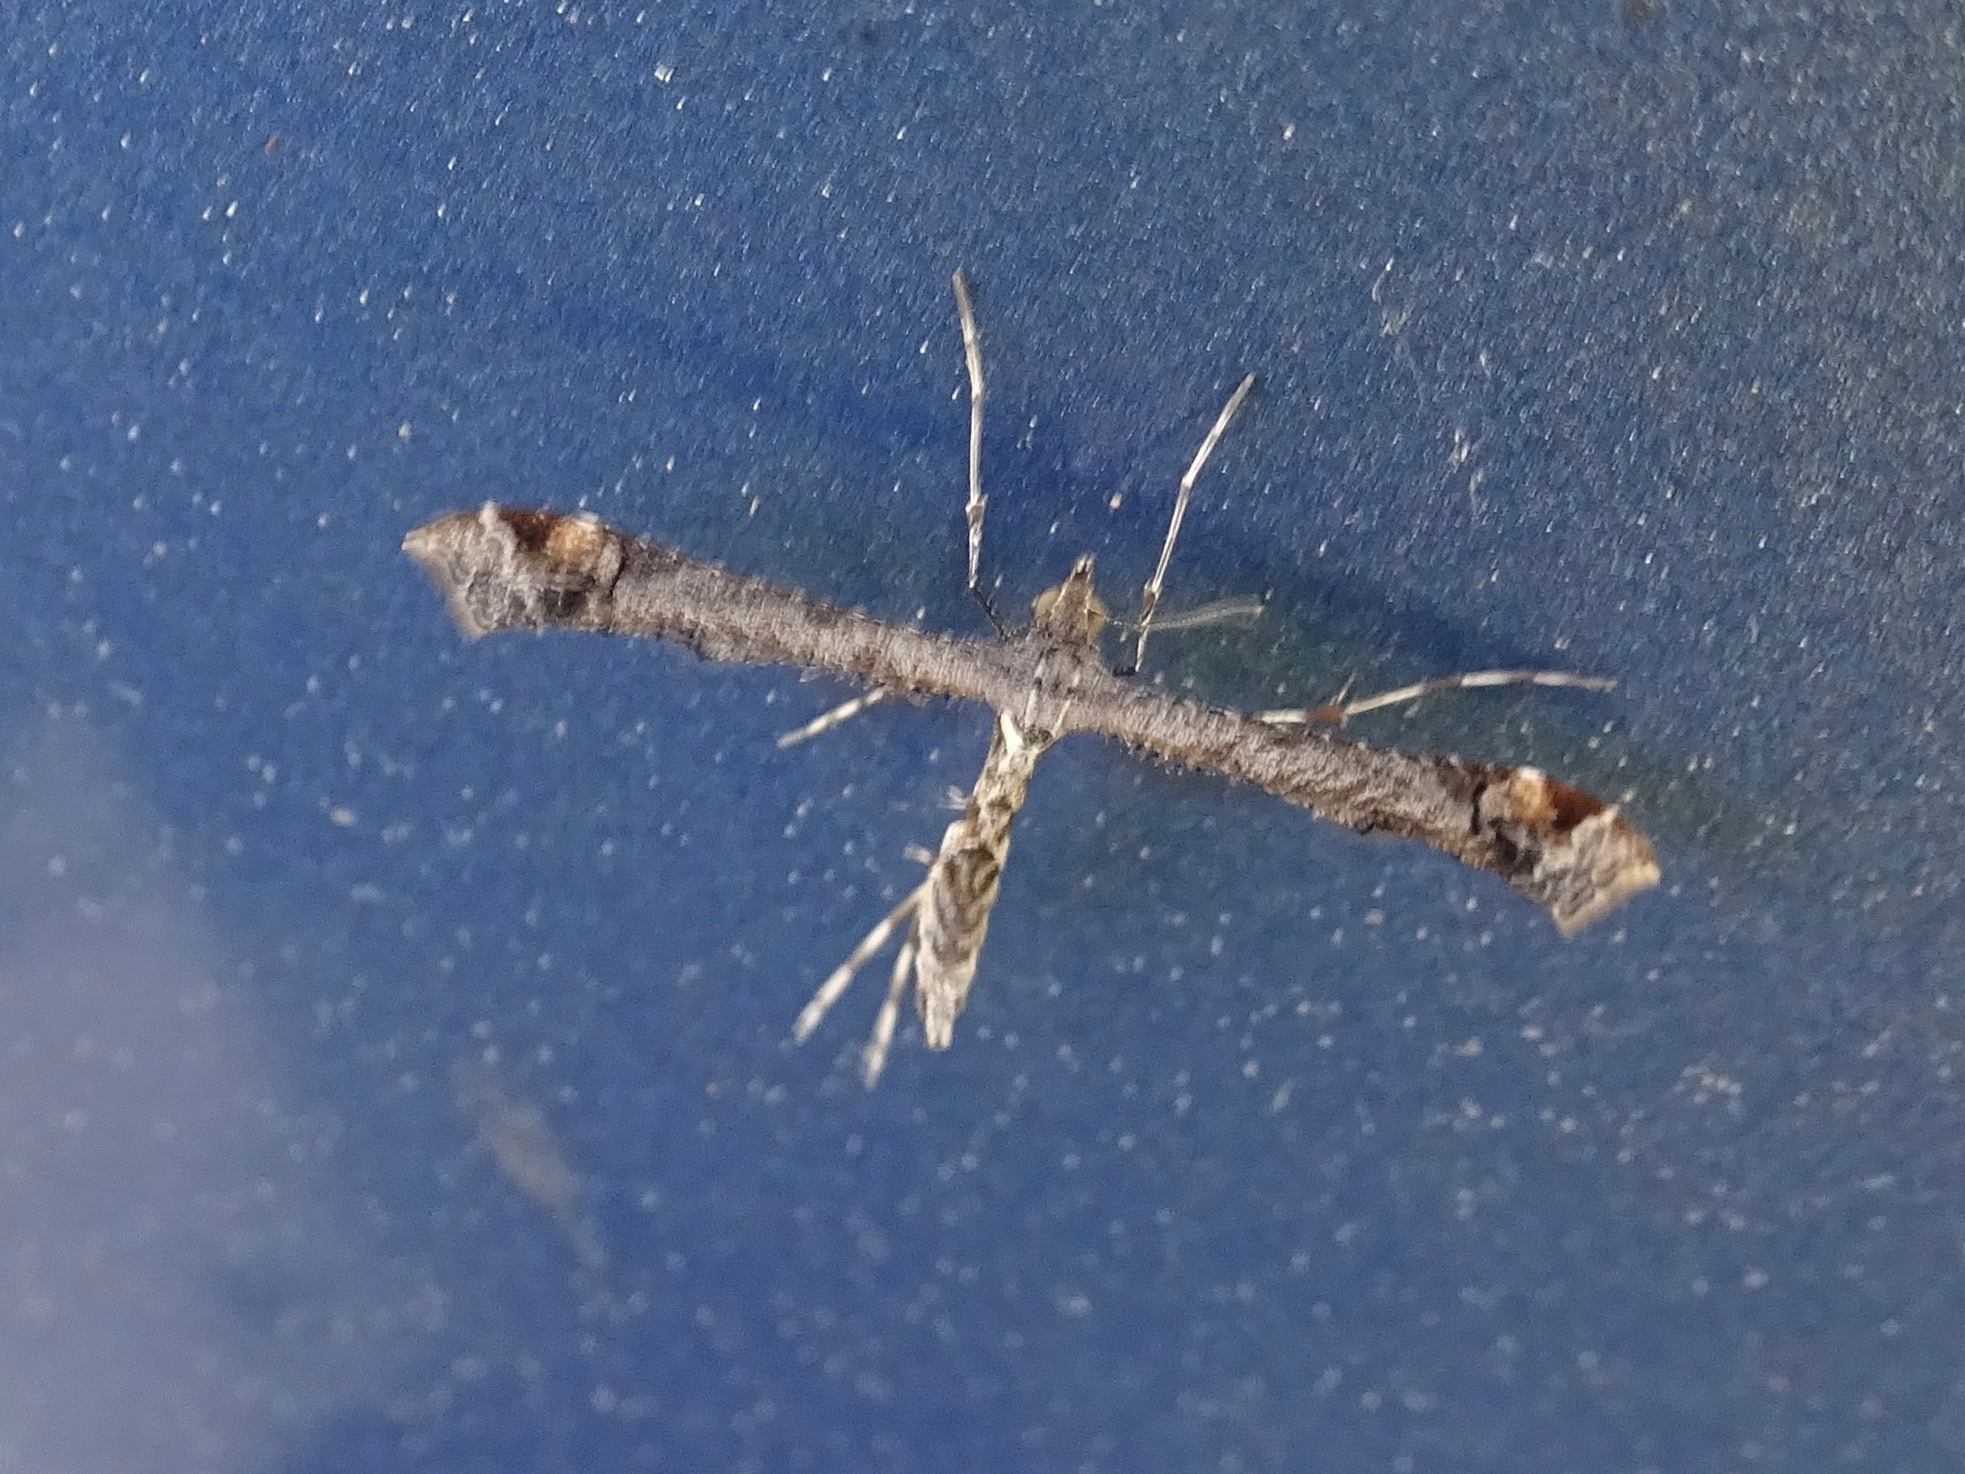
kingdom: Animalia
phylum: Arthropoda
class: Insecta
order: Lepidoptera
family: Pterophoridae
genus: Anstenoptilia
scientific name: Anstenoptilia marmarodactyla
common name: Moth
